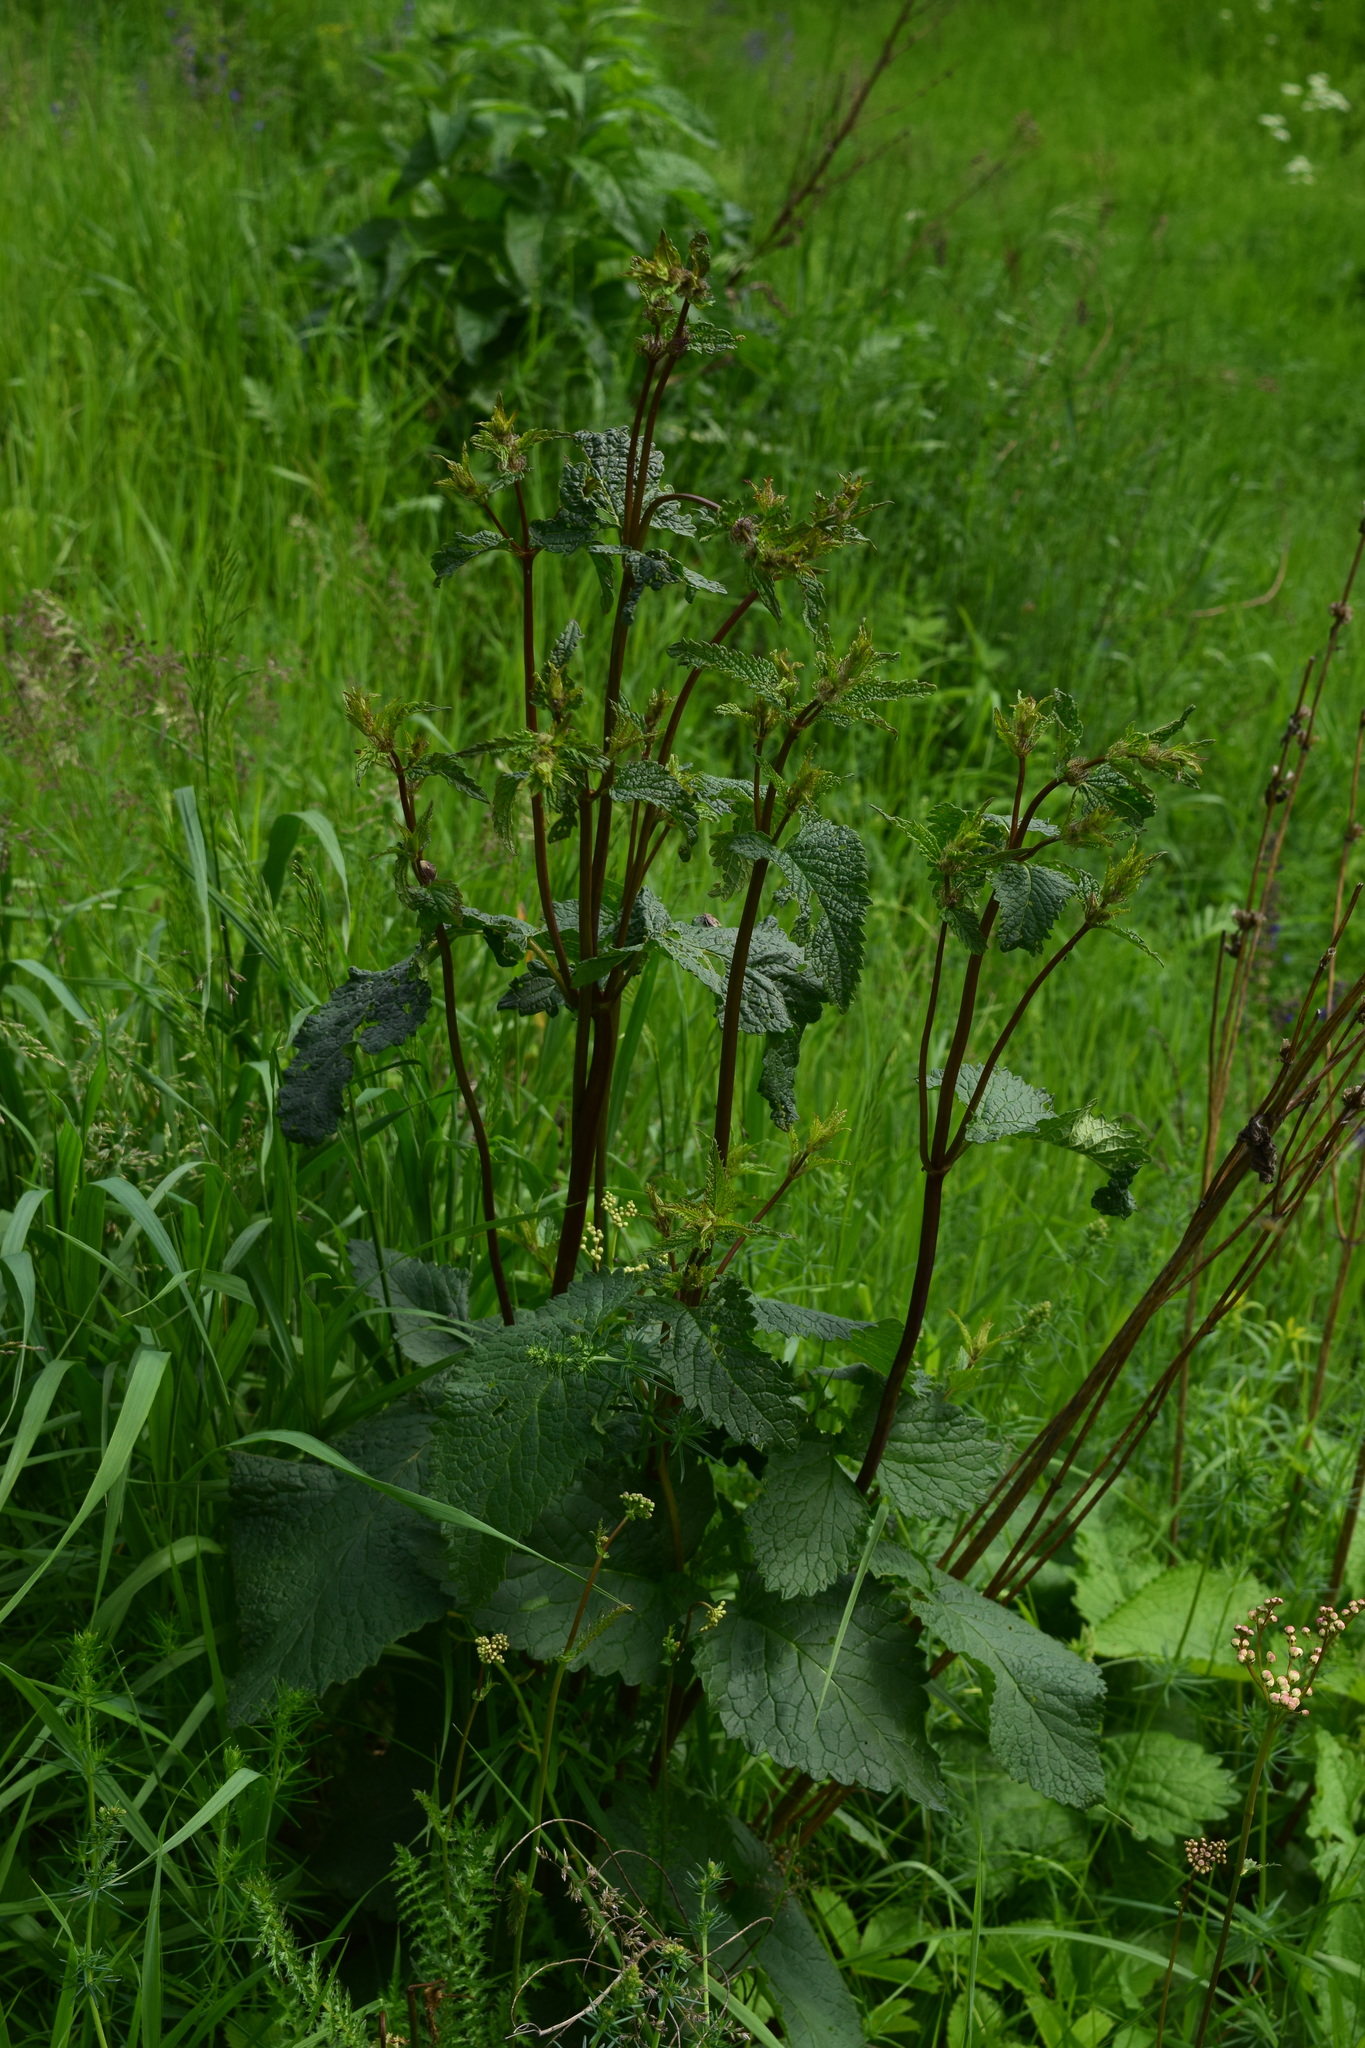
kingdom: Plantae
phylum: Tracheophyta
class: Magnoliopsida
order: Lamiales
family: Lamiaceae
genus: Phlomoides
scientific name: Phlomoides tuberosa
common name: Tuberous jerusalem sage
